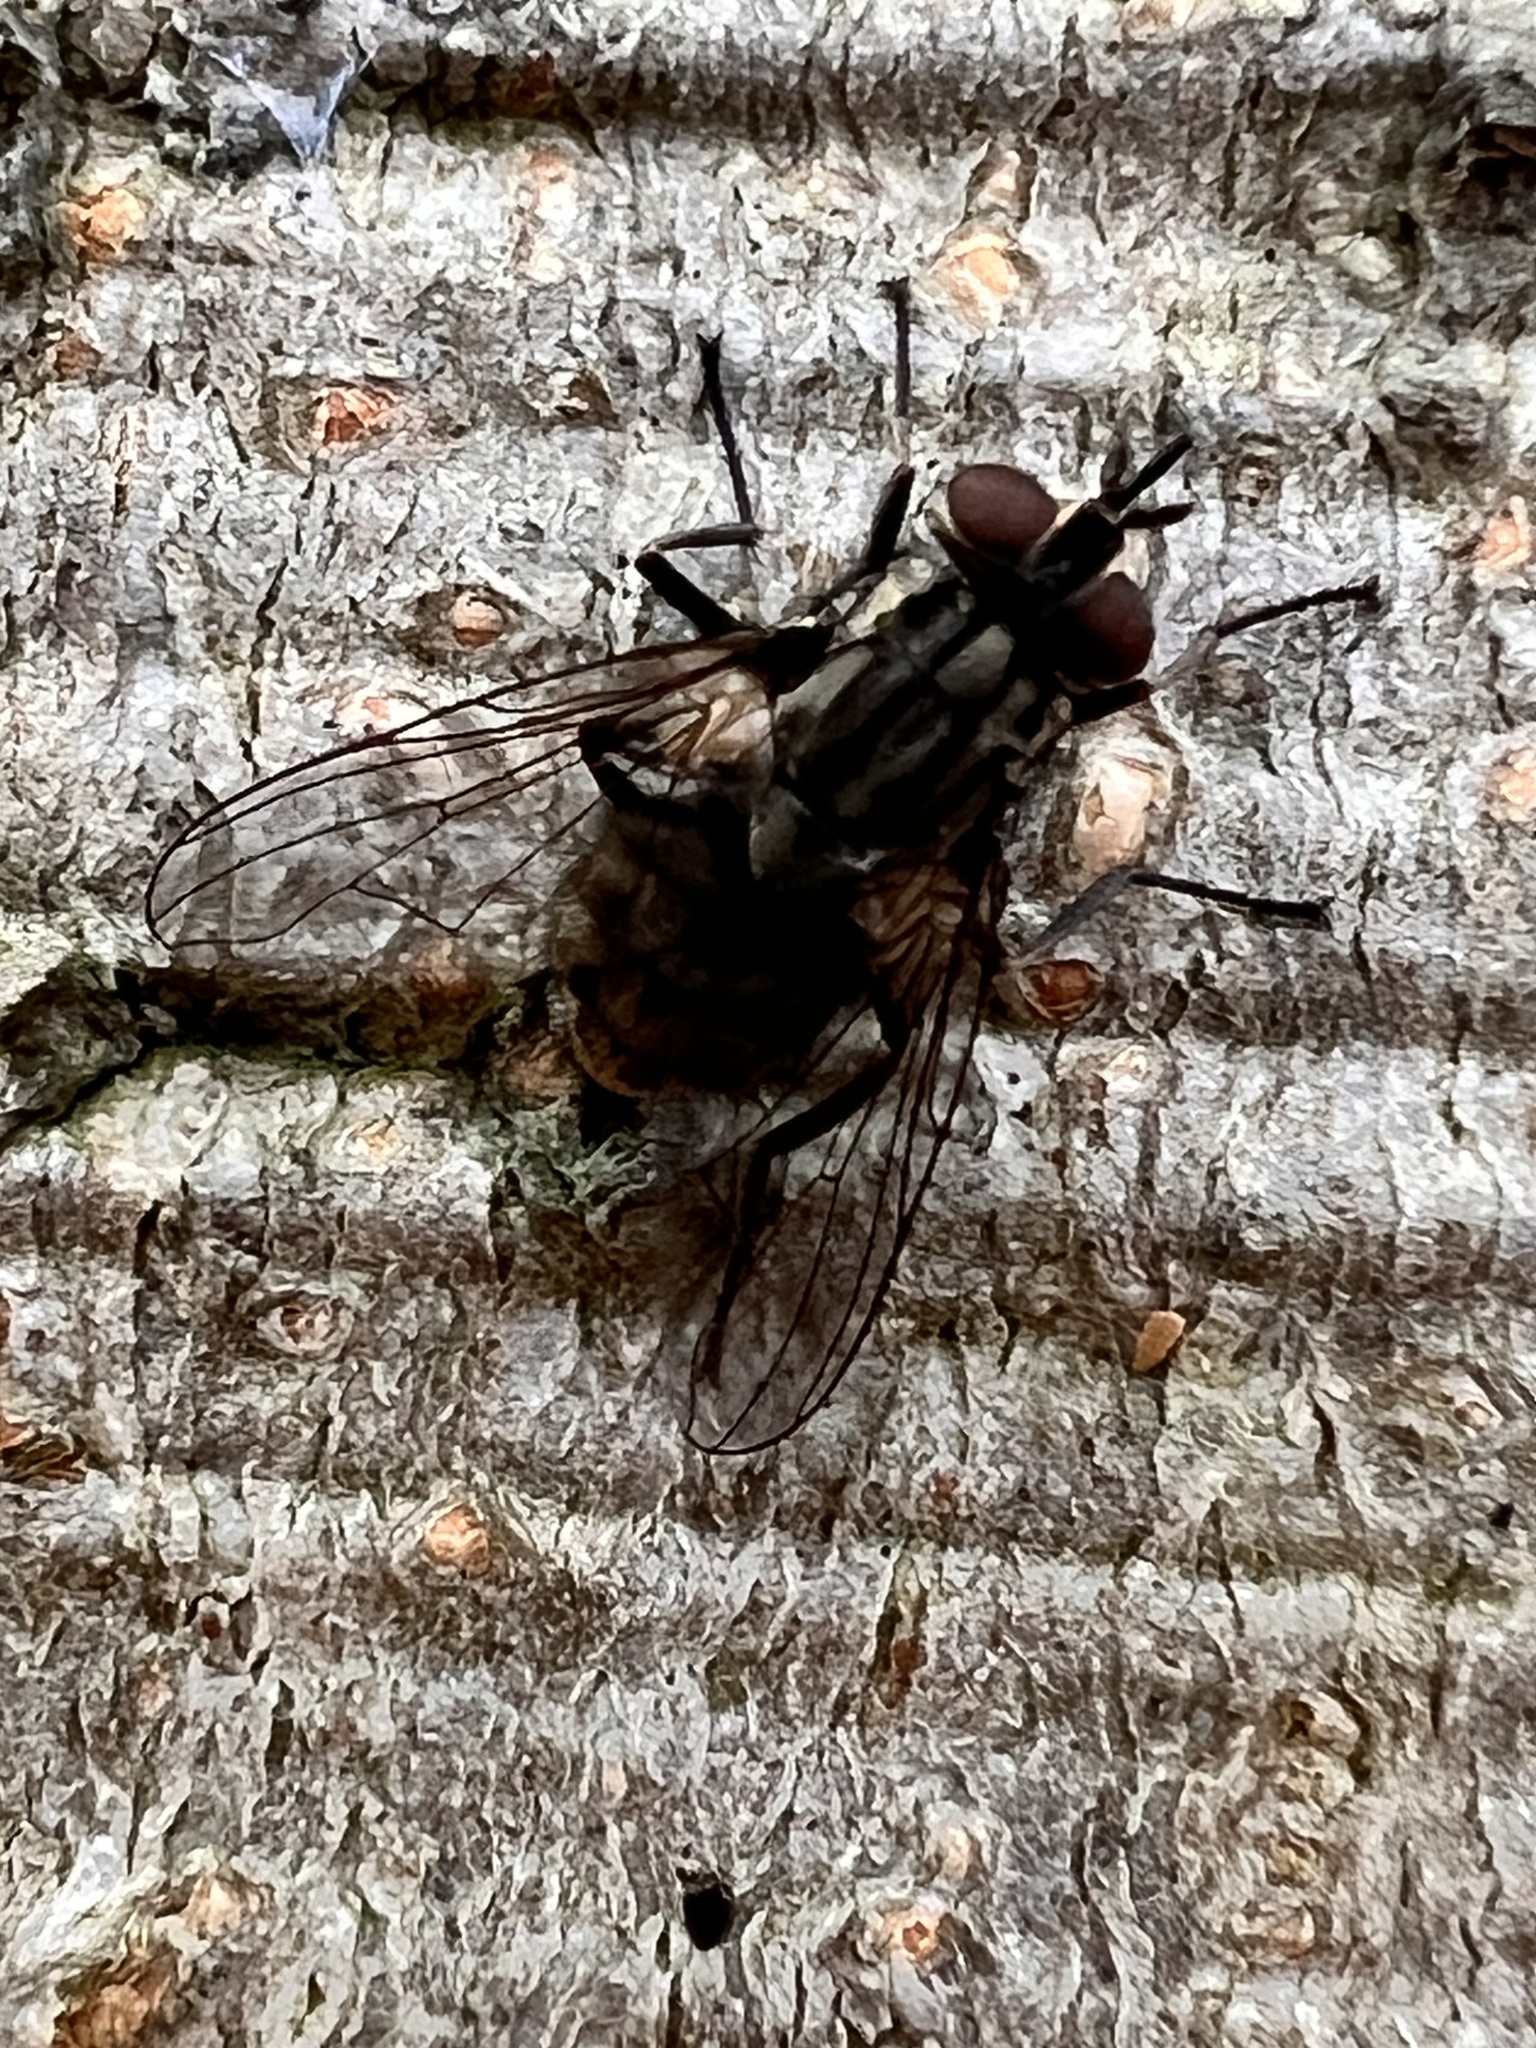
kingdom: Animalia
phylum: Arthropoda
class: Insecta
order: Diptera
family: Muscidae
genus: Stomoxys
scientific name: Stomoxys calcitrans
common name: Stable fly
